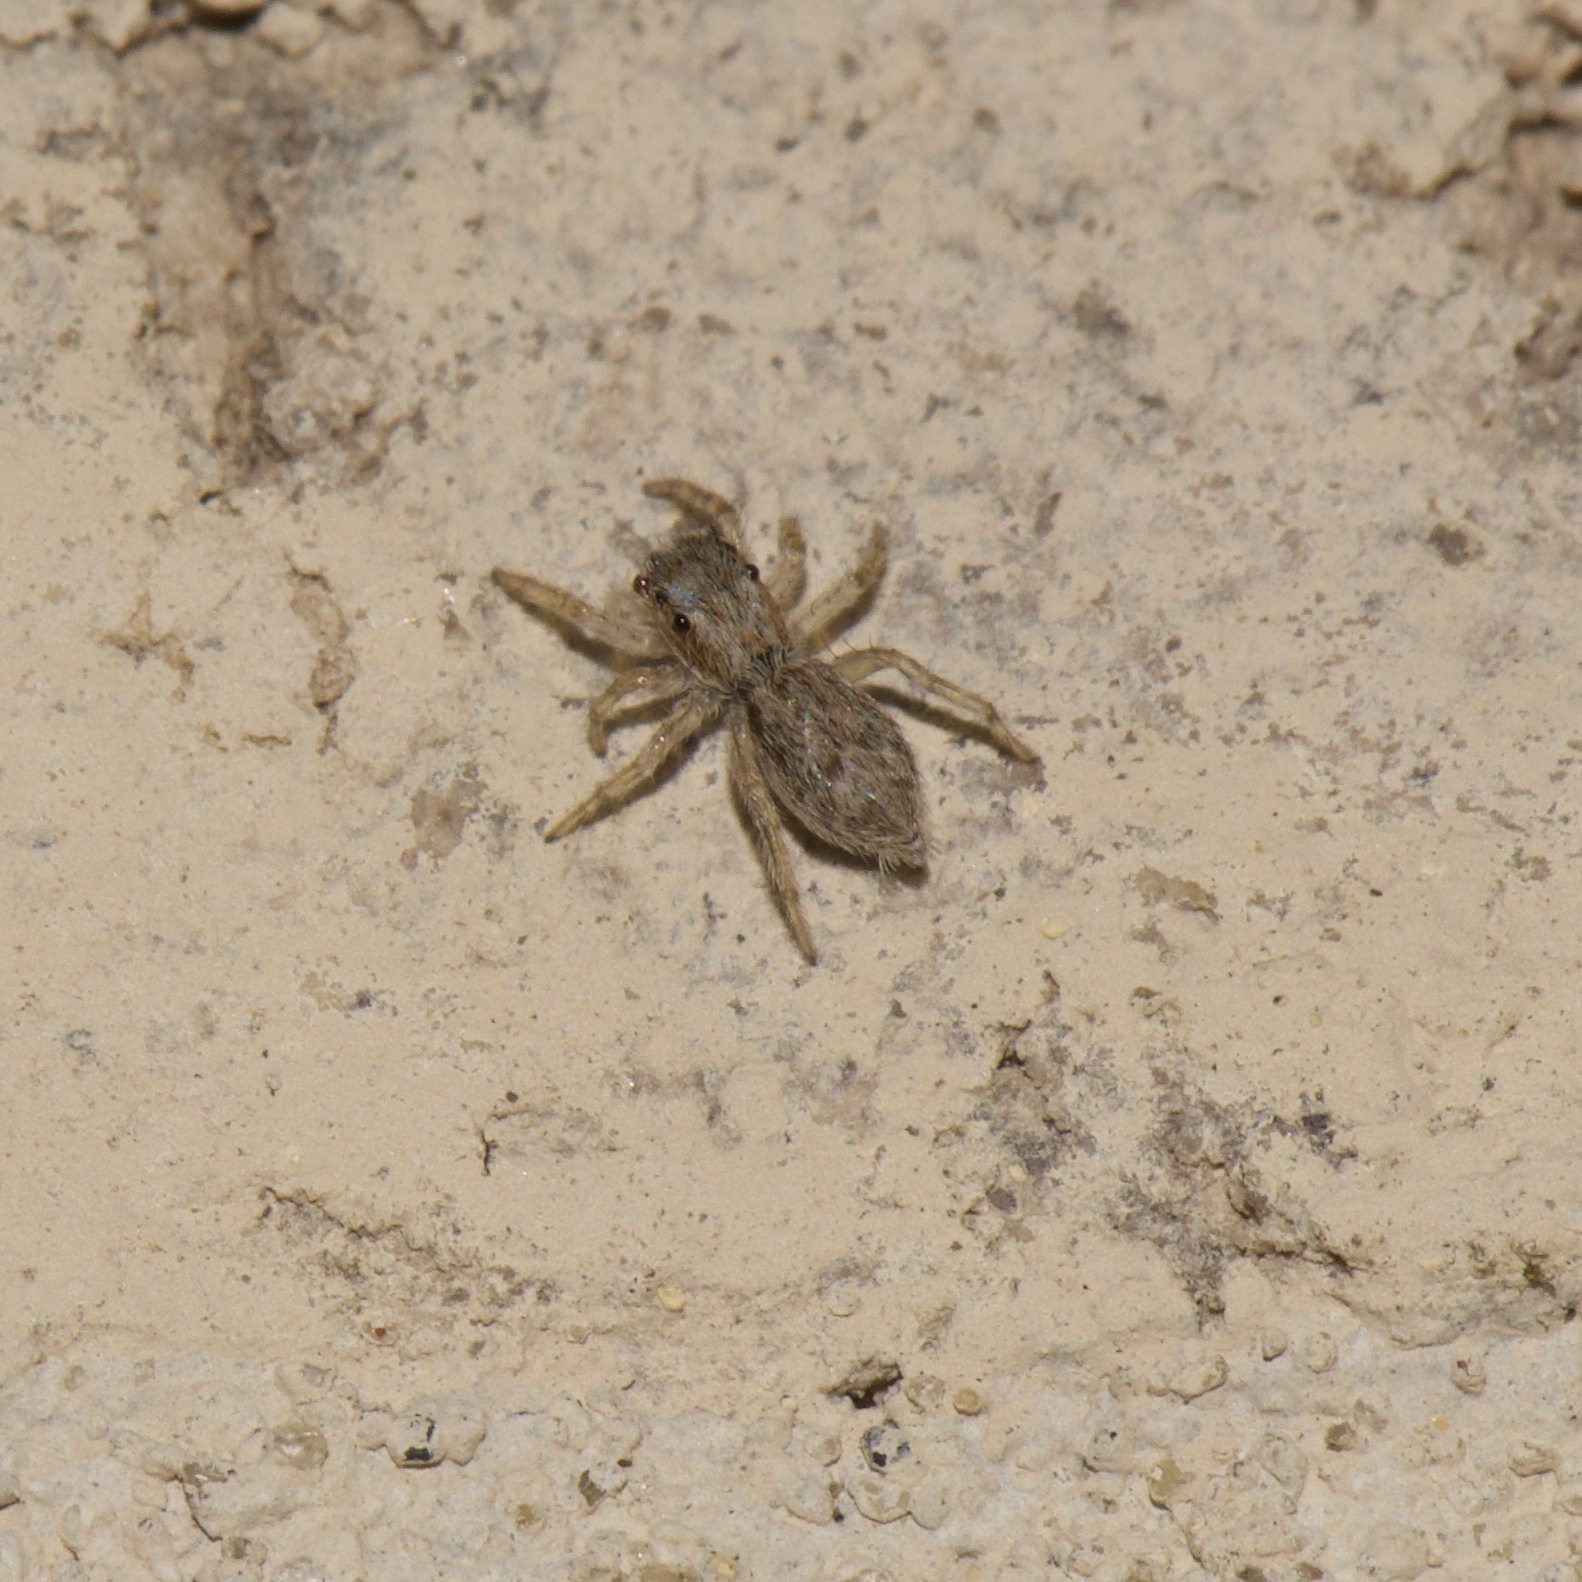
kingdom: Animalia
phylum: Arthropoda
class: Arachnida
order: Araneae
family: Salticidae
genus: Menemerus
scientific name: Menemerus bivittatus
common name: Gray wall jumper
